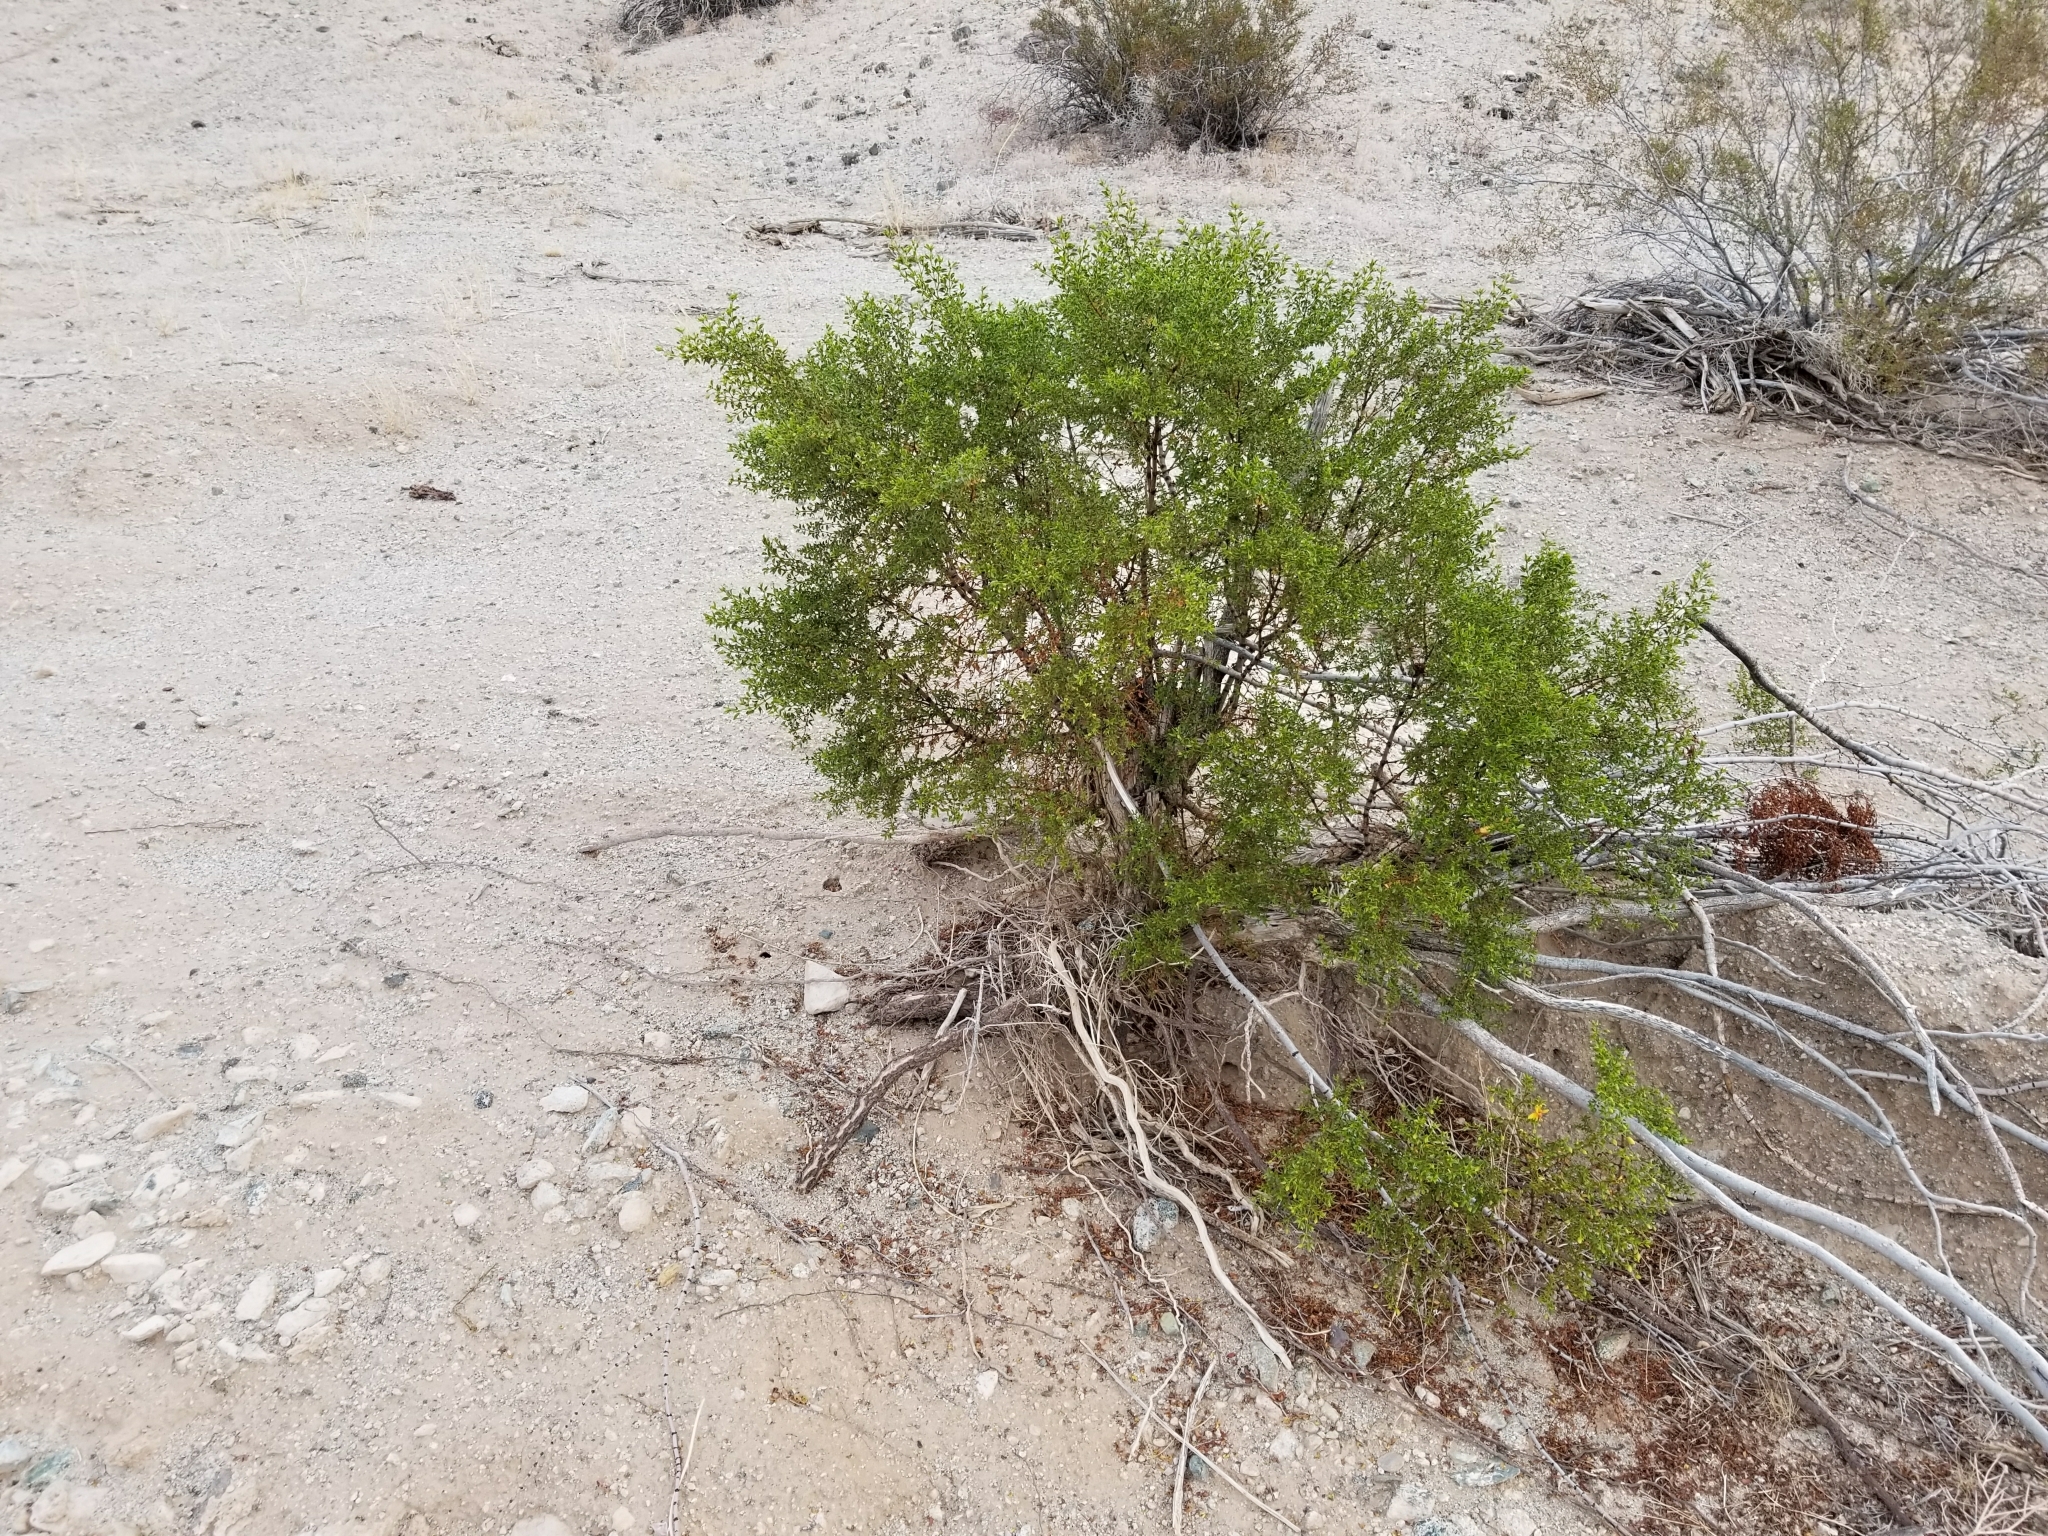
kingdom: Plantae
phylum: Tracheophyta
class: Magnoliopsida
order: Zygophyllales
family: Zygophyllaceae
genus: Larrea
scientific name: Larrea tridentata
